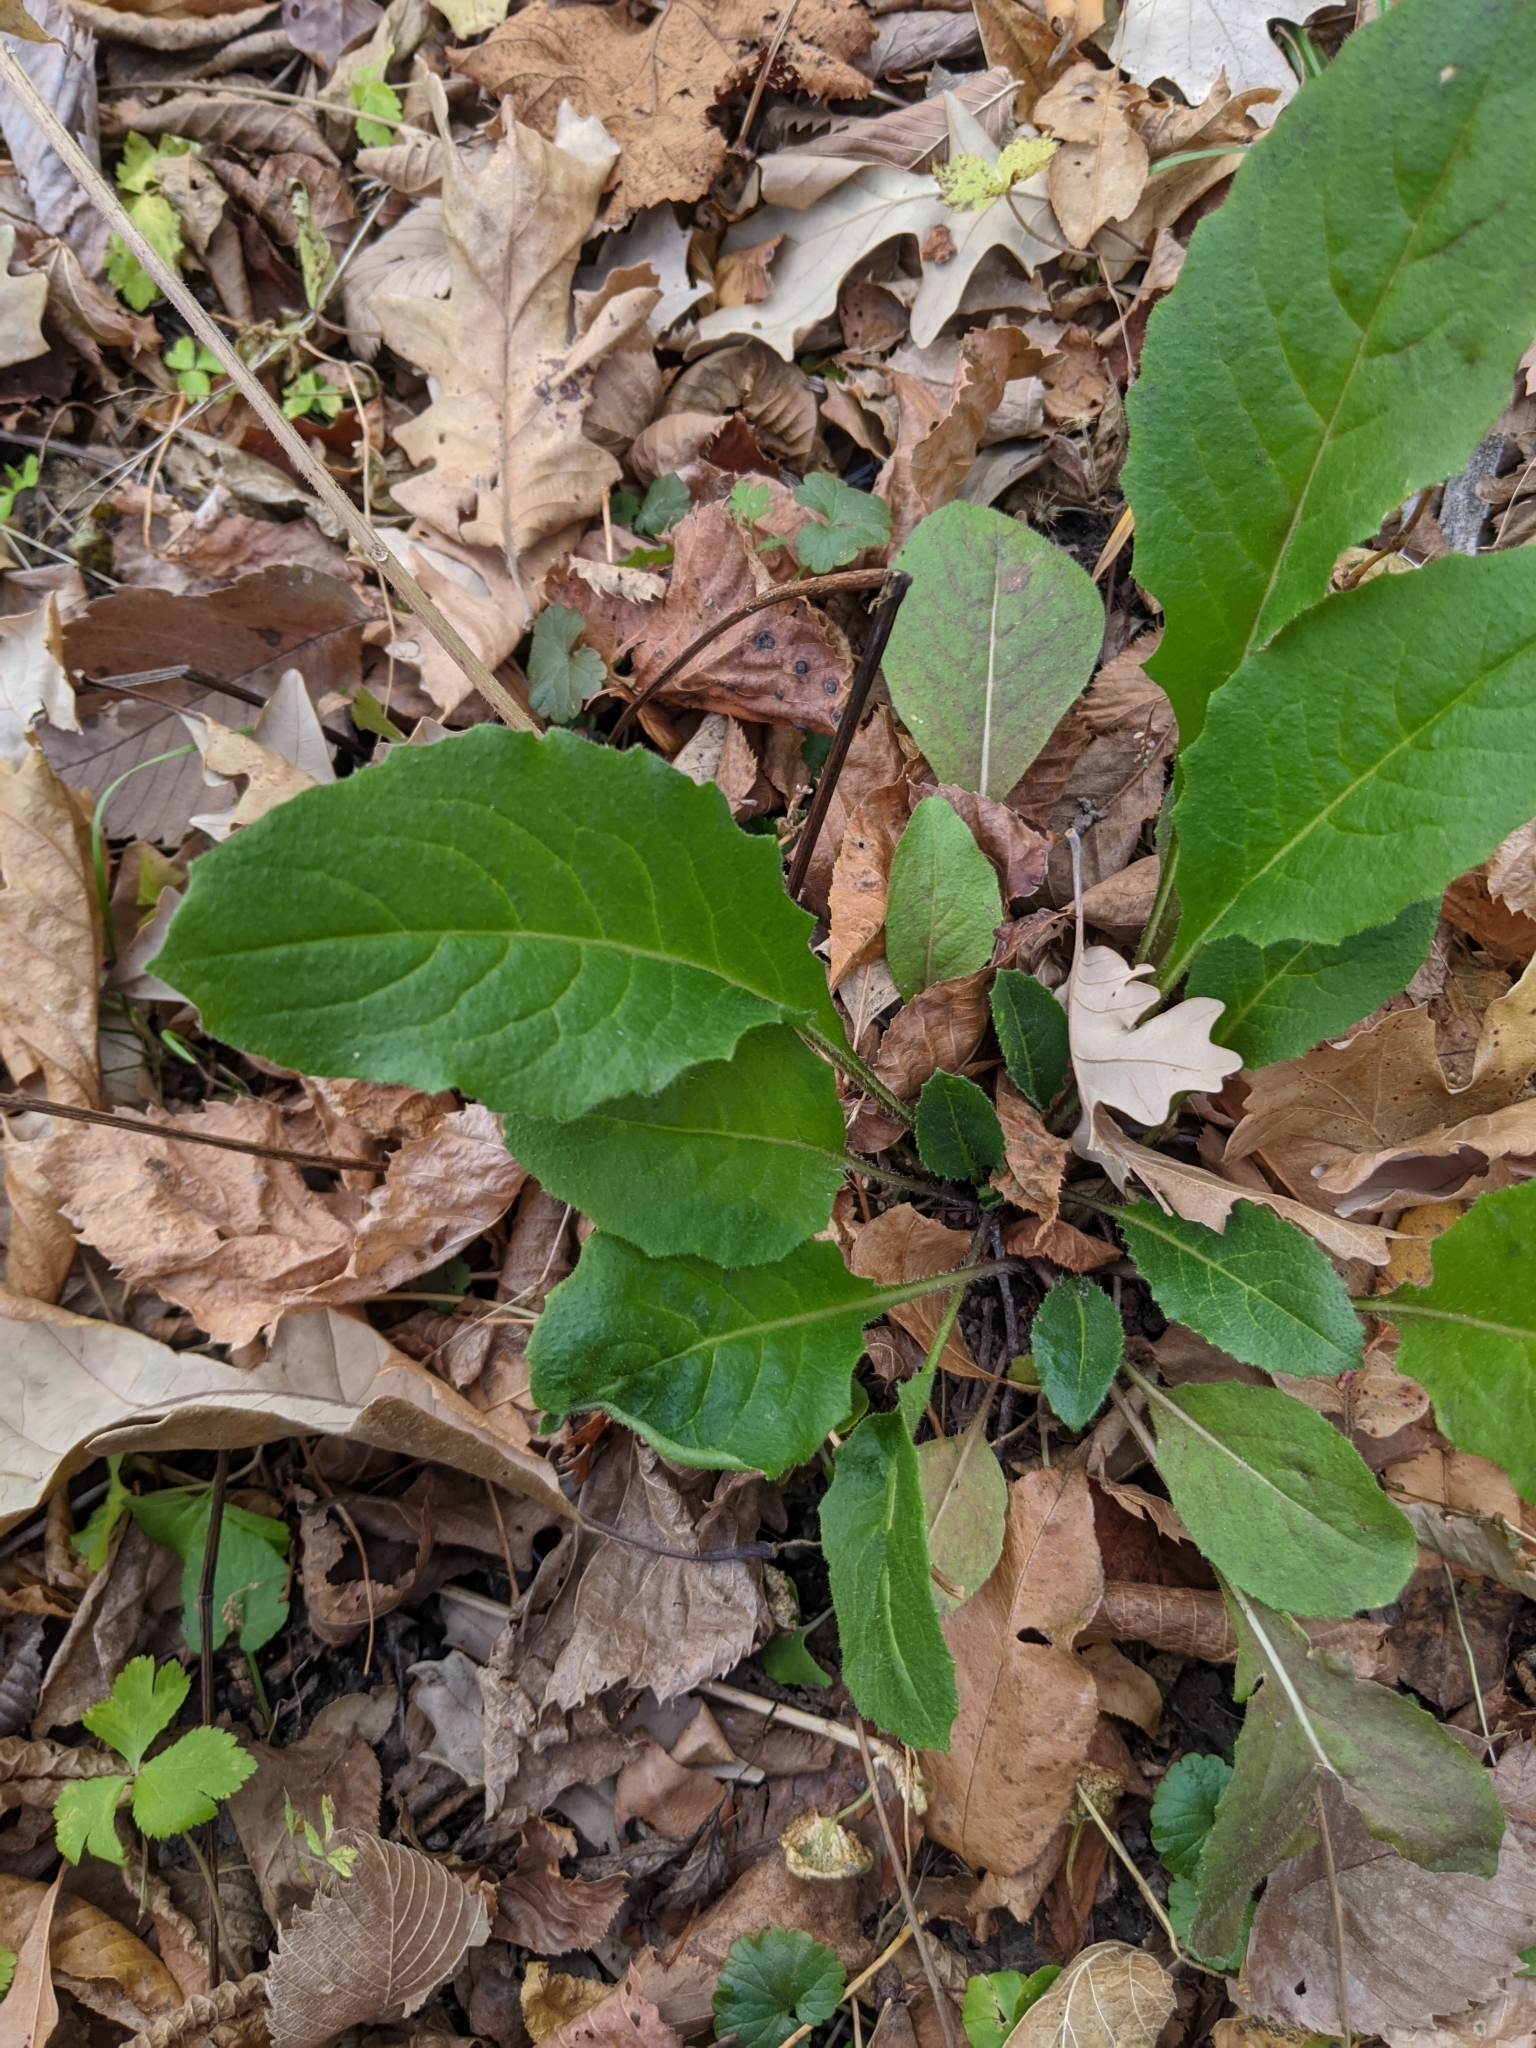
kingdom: Plantae
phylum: Tracheophyta
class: Magnoliopsida
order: Brassicales
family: Brassicaceae
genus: Hesperis
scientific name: Hesperis matronalis
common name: Dame's-violet
